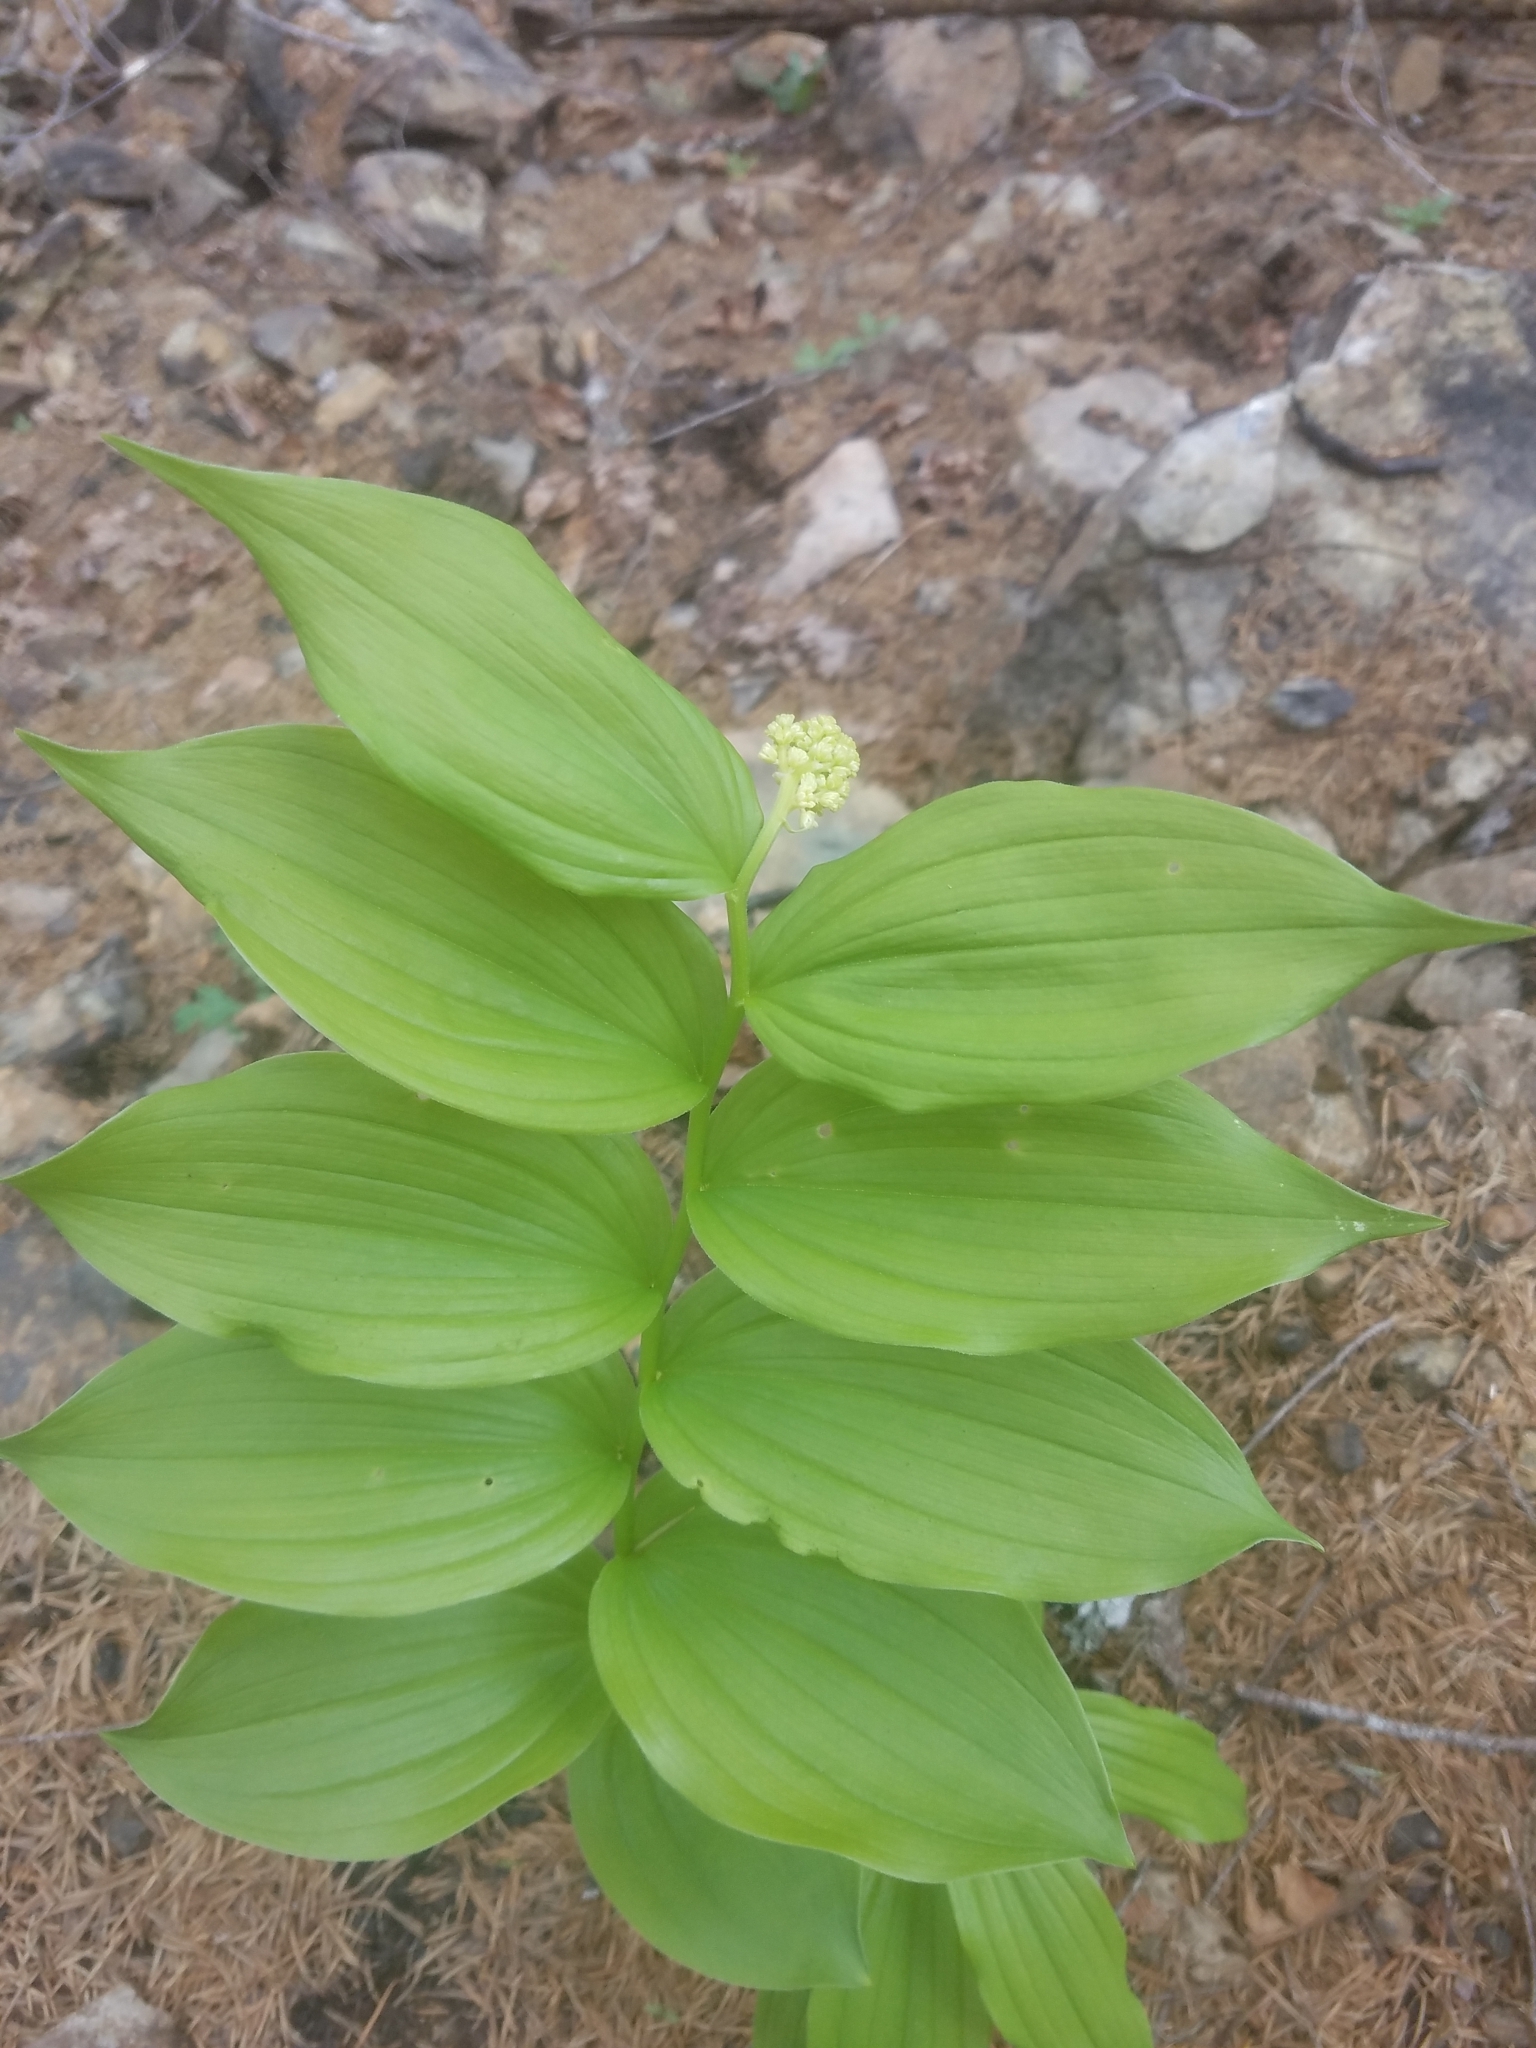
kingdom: Plantae
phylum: Tracheophyta
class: Liliopsida
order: Asparagales
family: Asparagaceae
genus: Maianthemum
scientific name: Maianthemum racemosum
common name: False spikenard
